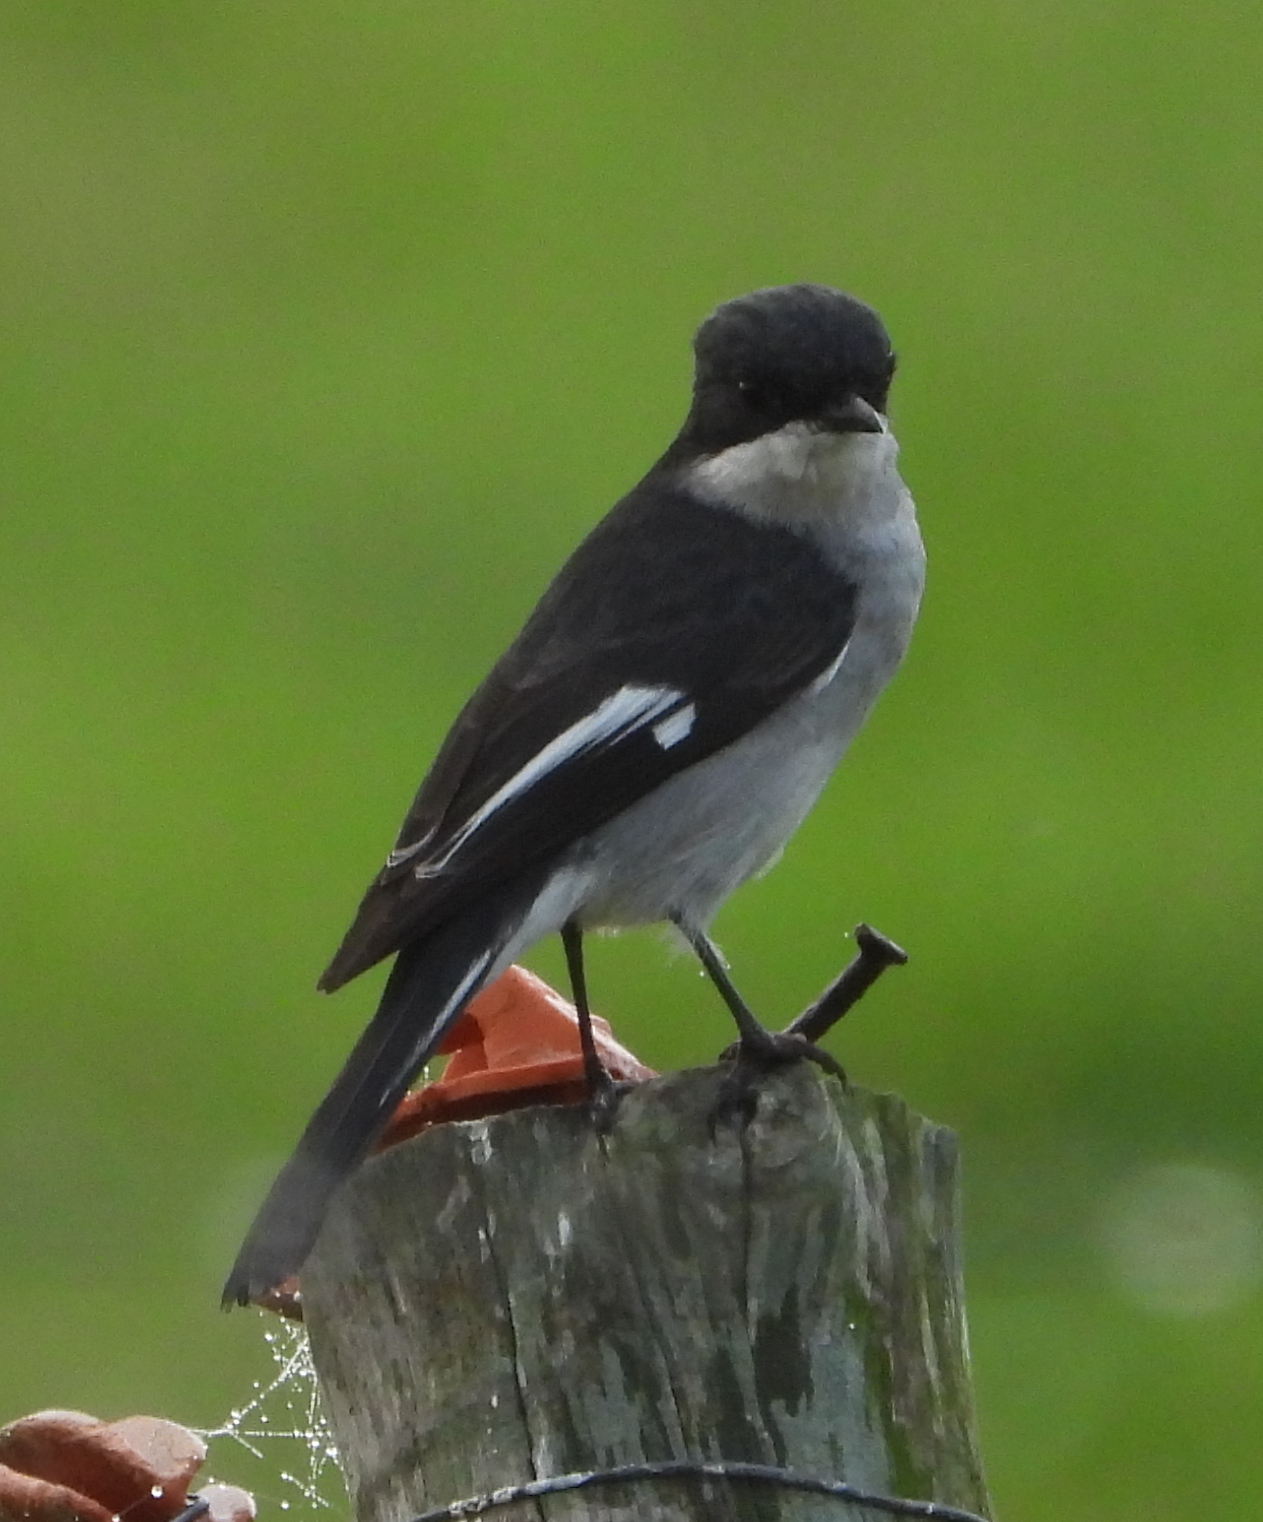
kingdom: Animalia
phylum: Chordata
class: Aves
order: Passeriformes
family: Muscicapidae
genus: Sigelus
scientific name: Sigelus silens
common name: Fiscal flycatcher
